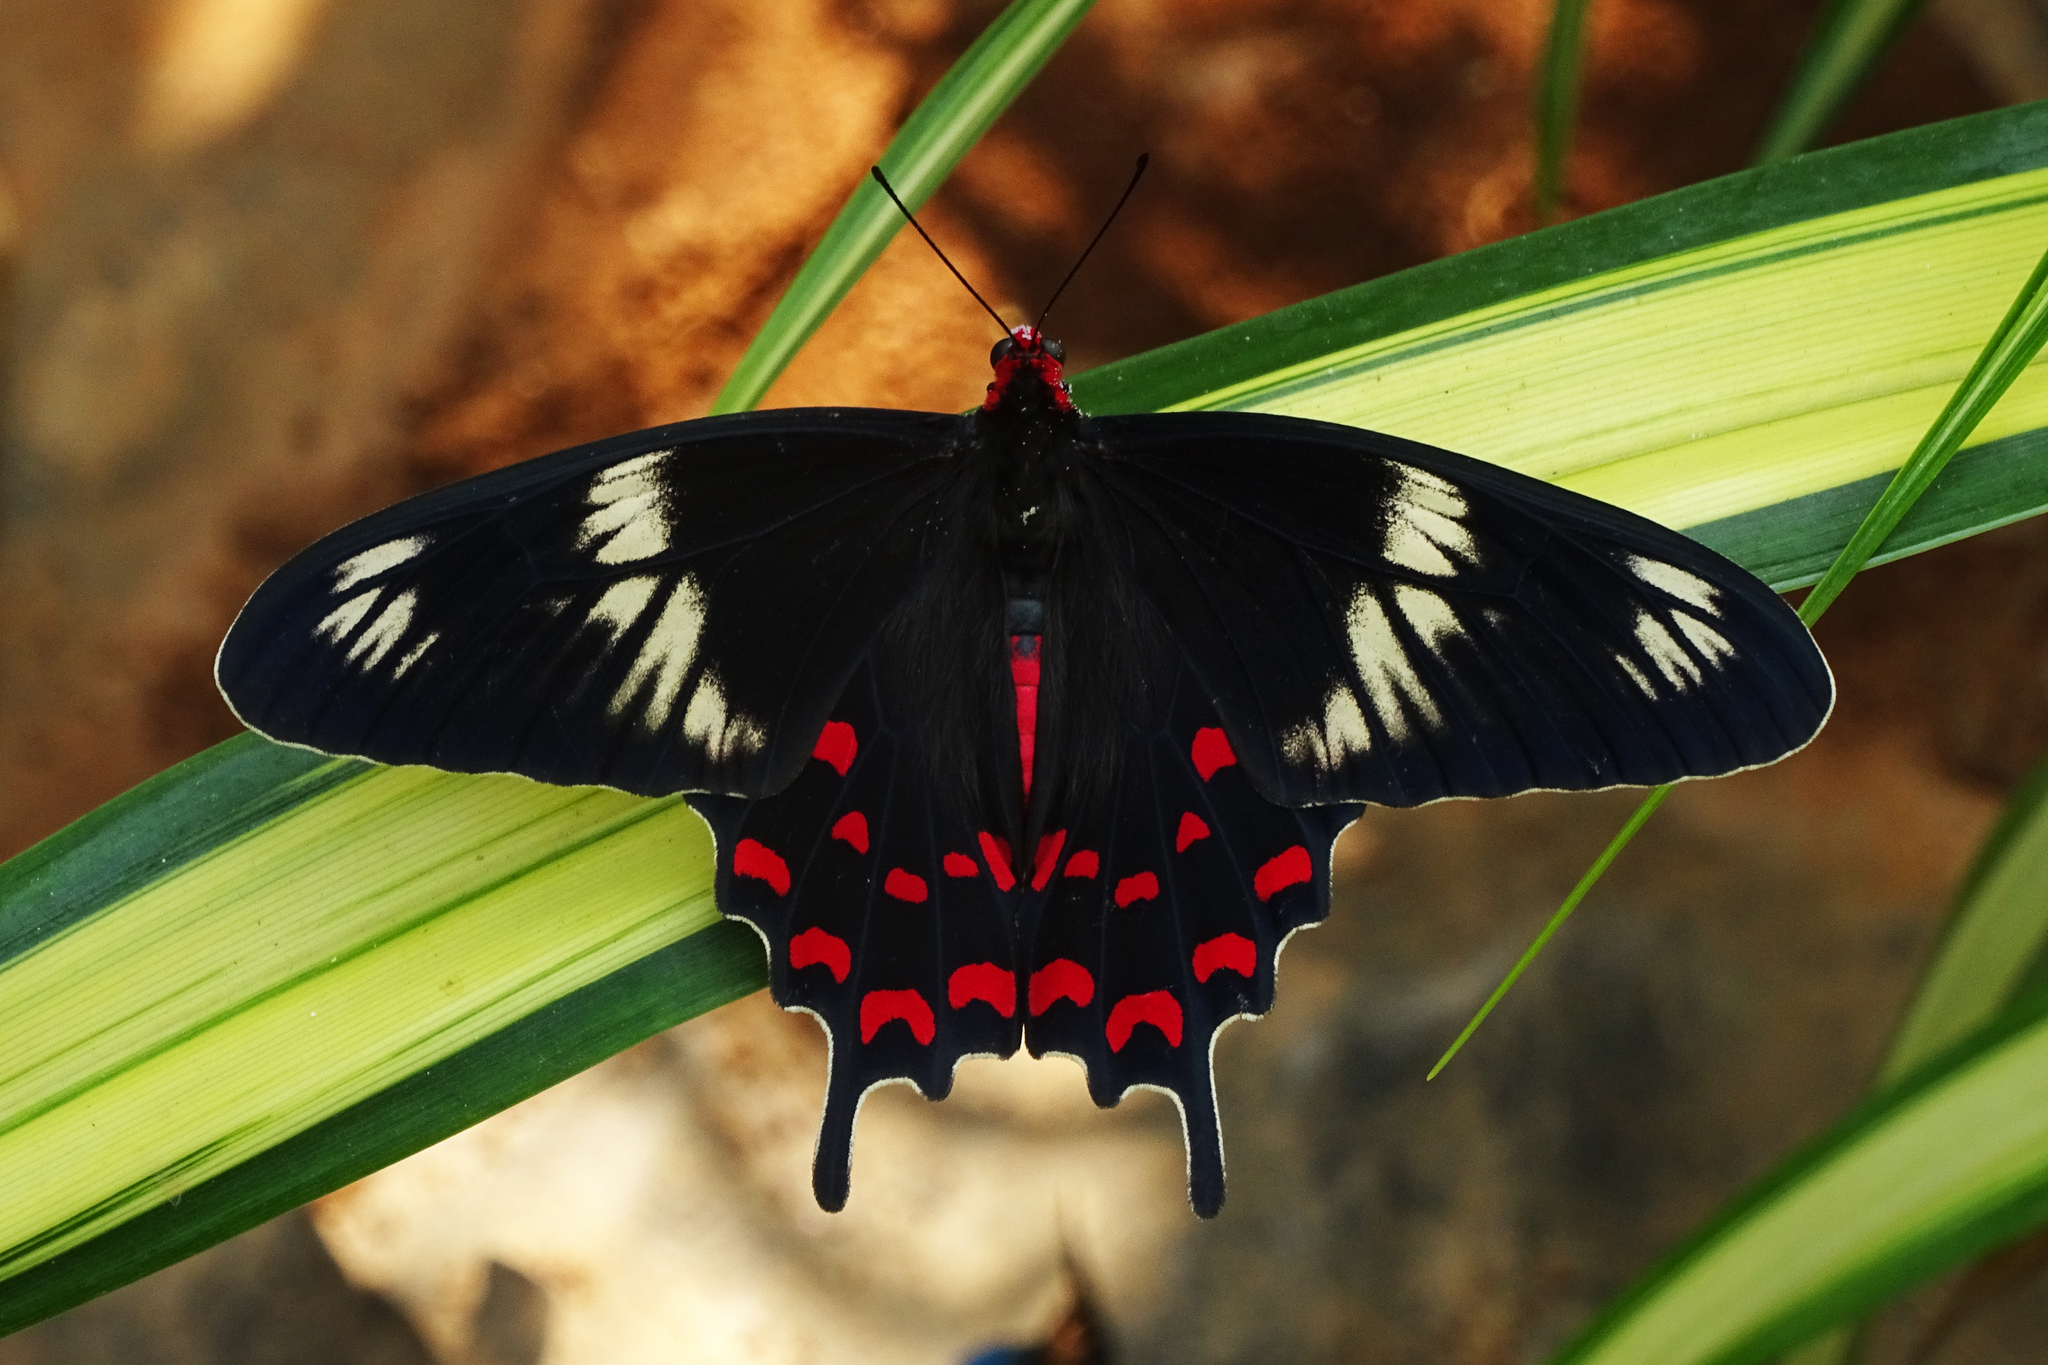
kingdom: Animalia
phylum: Arthropoda
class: Insecta
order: Lepidoptera
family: Papilionidae
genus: Pachliopta
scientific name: Pachliopta hector
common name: Crimson rose
